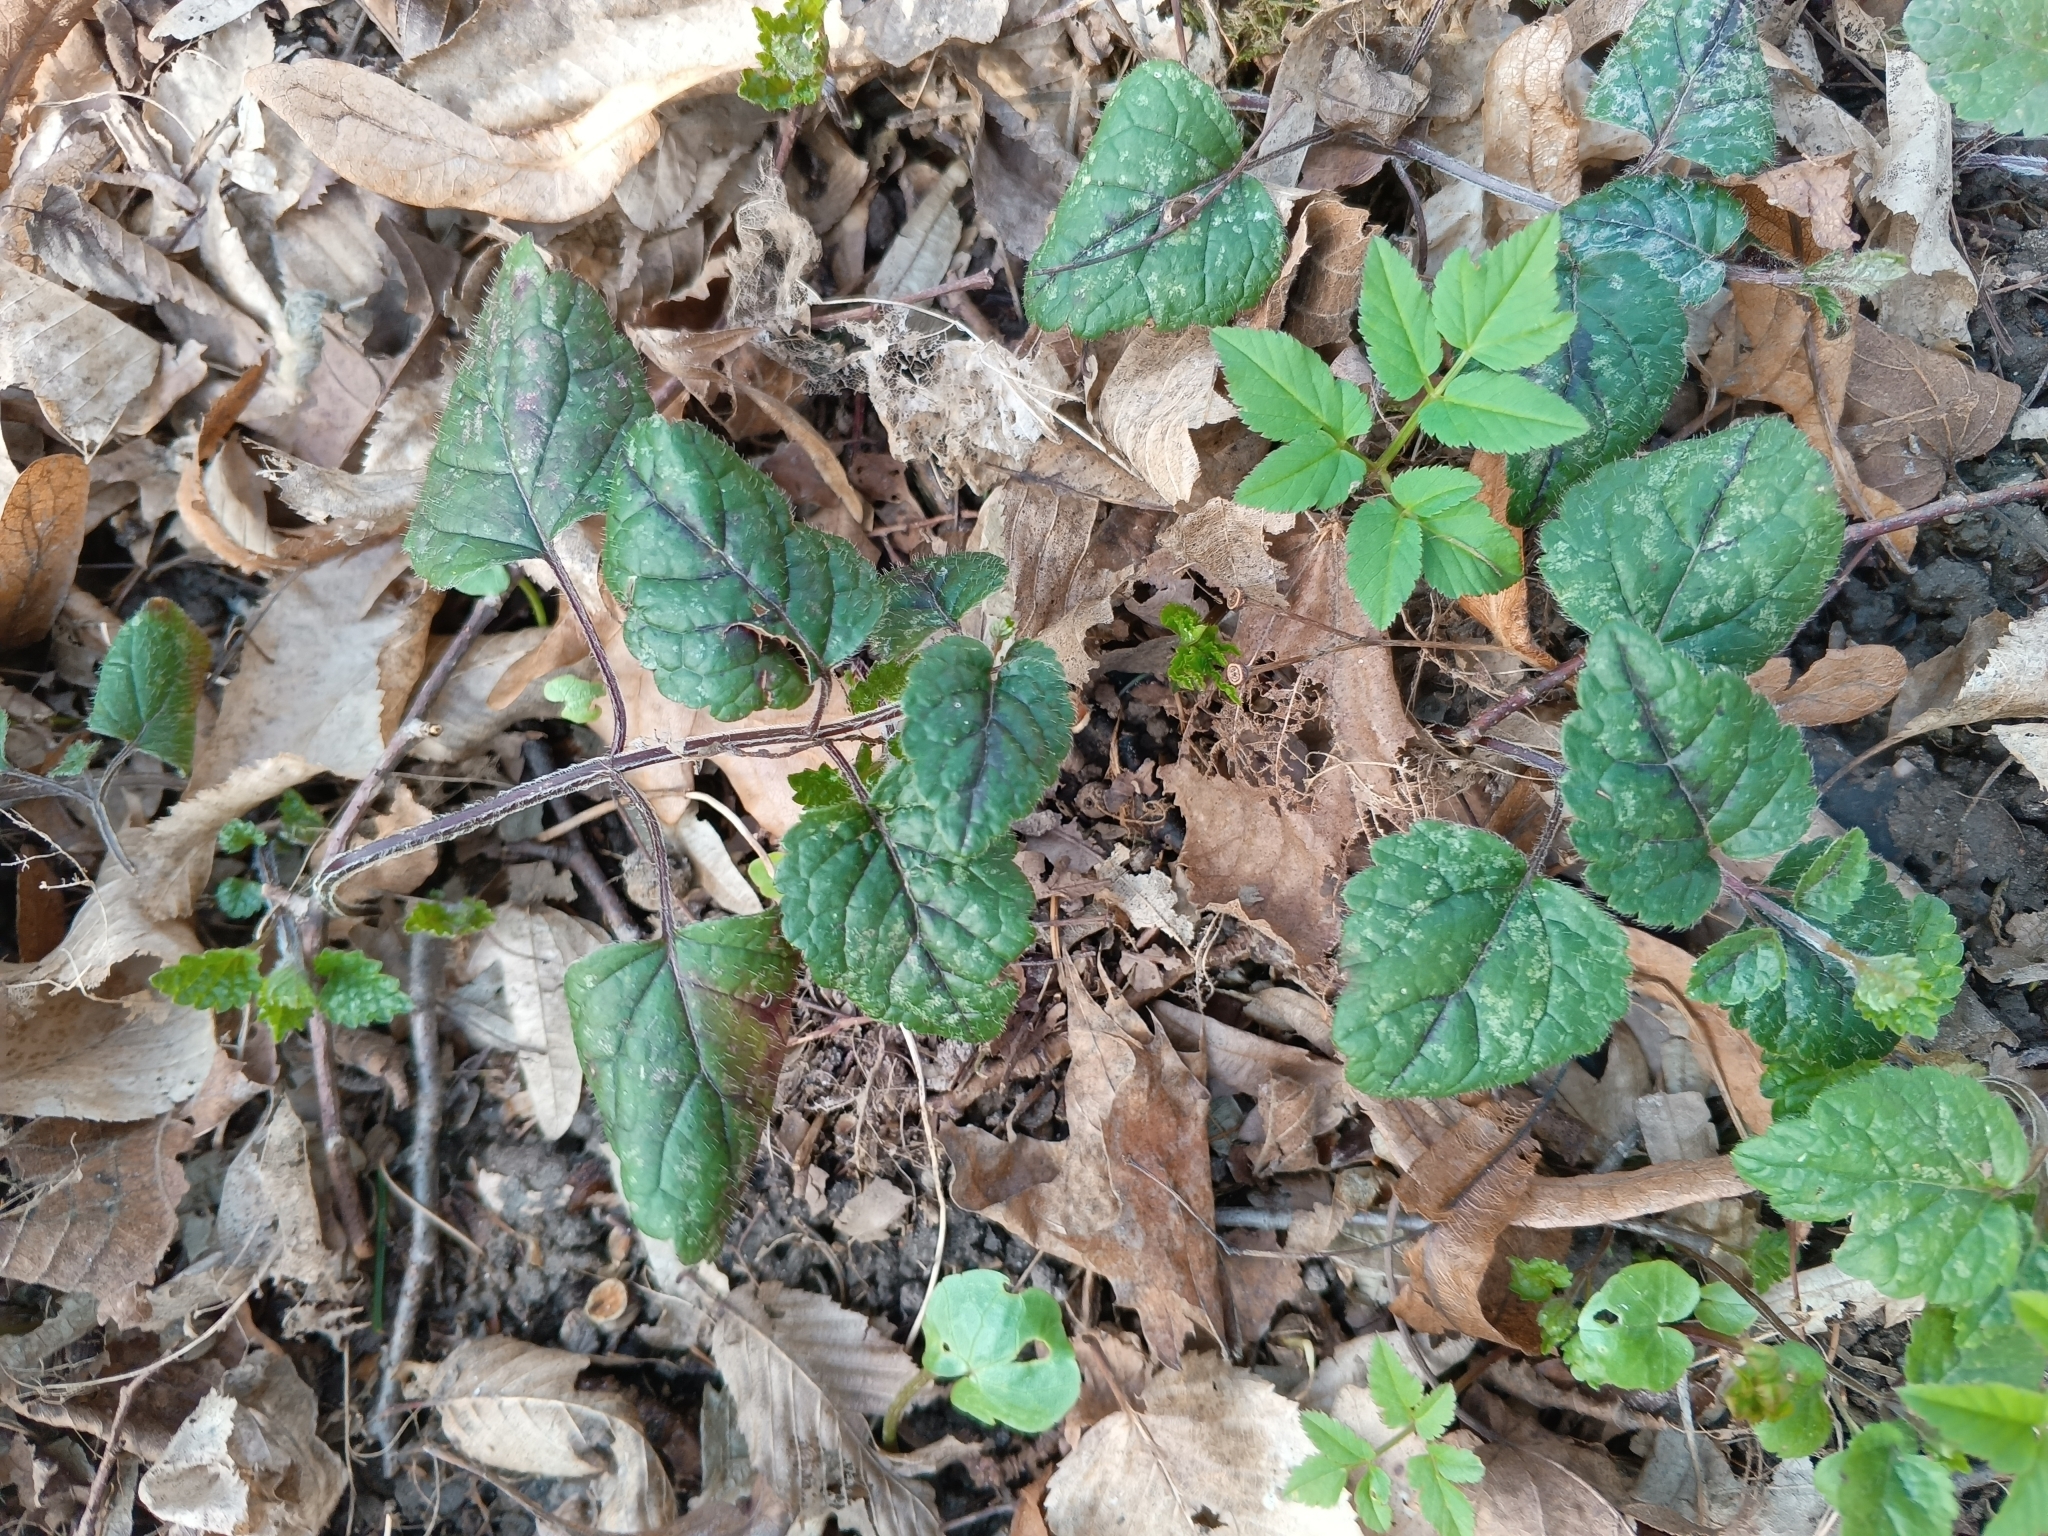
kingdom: Plantae
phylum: Tracheophyta
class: Magnoliopsida
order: Lamiales
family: Lamiaceae
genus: Lamium
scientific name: Lamium galeobdolon
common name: Yellow archangel
